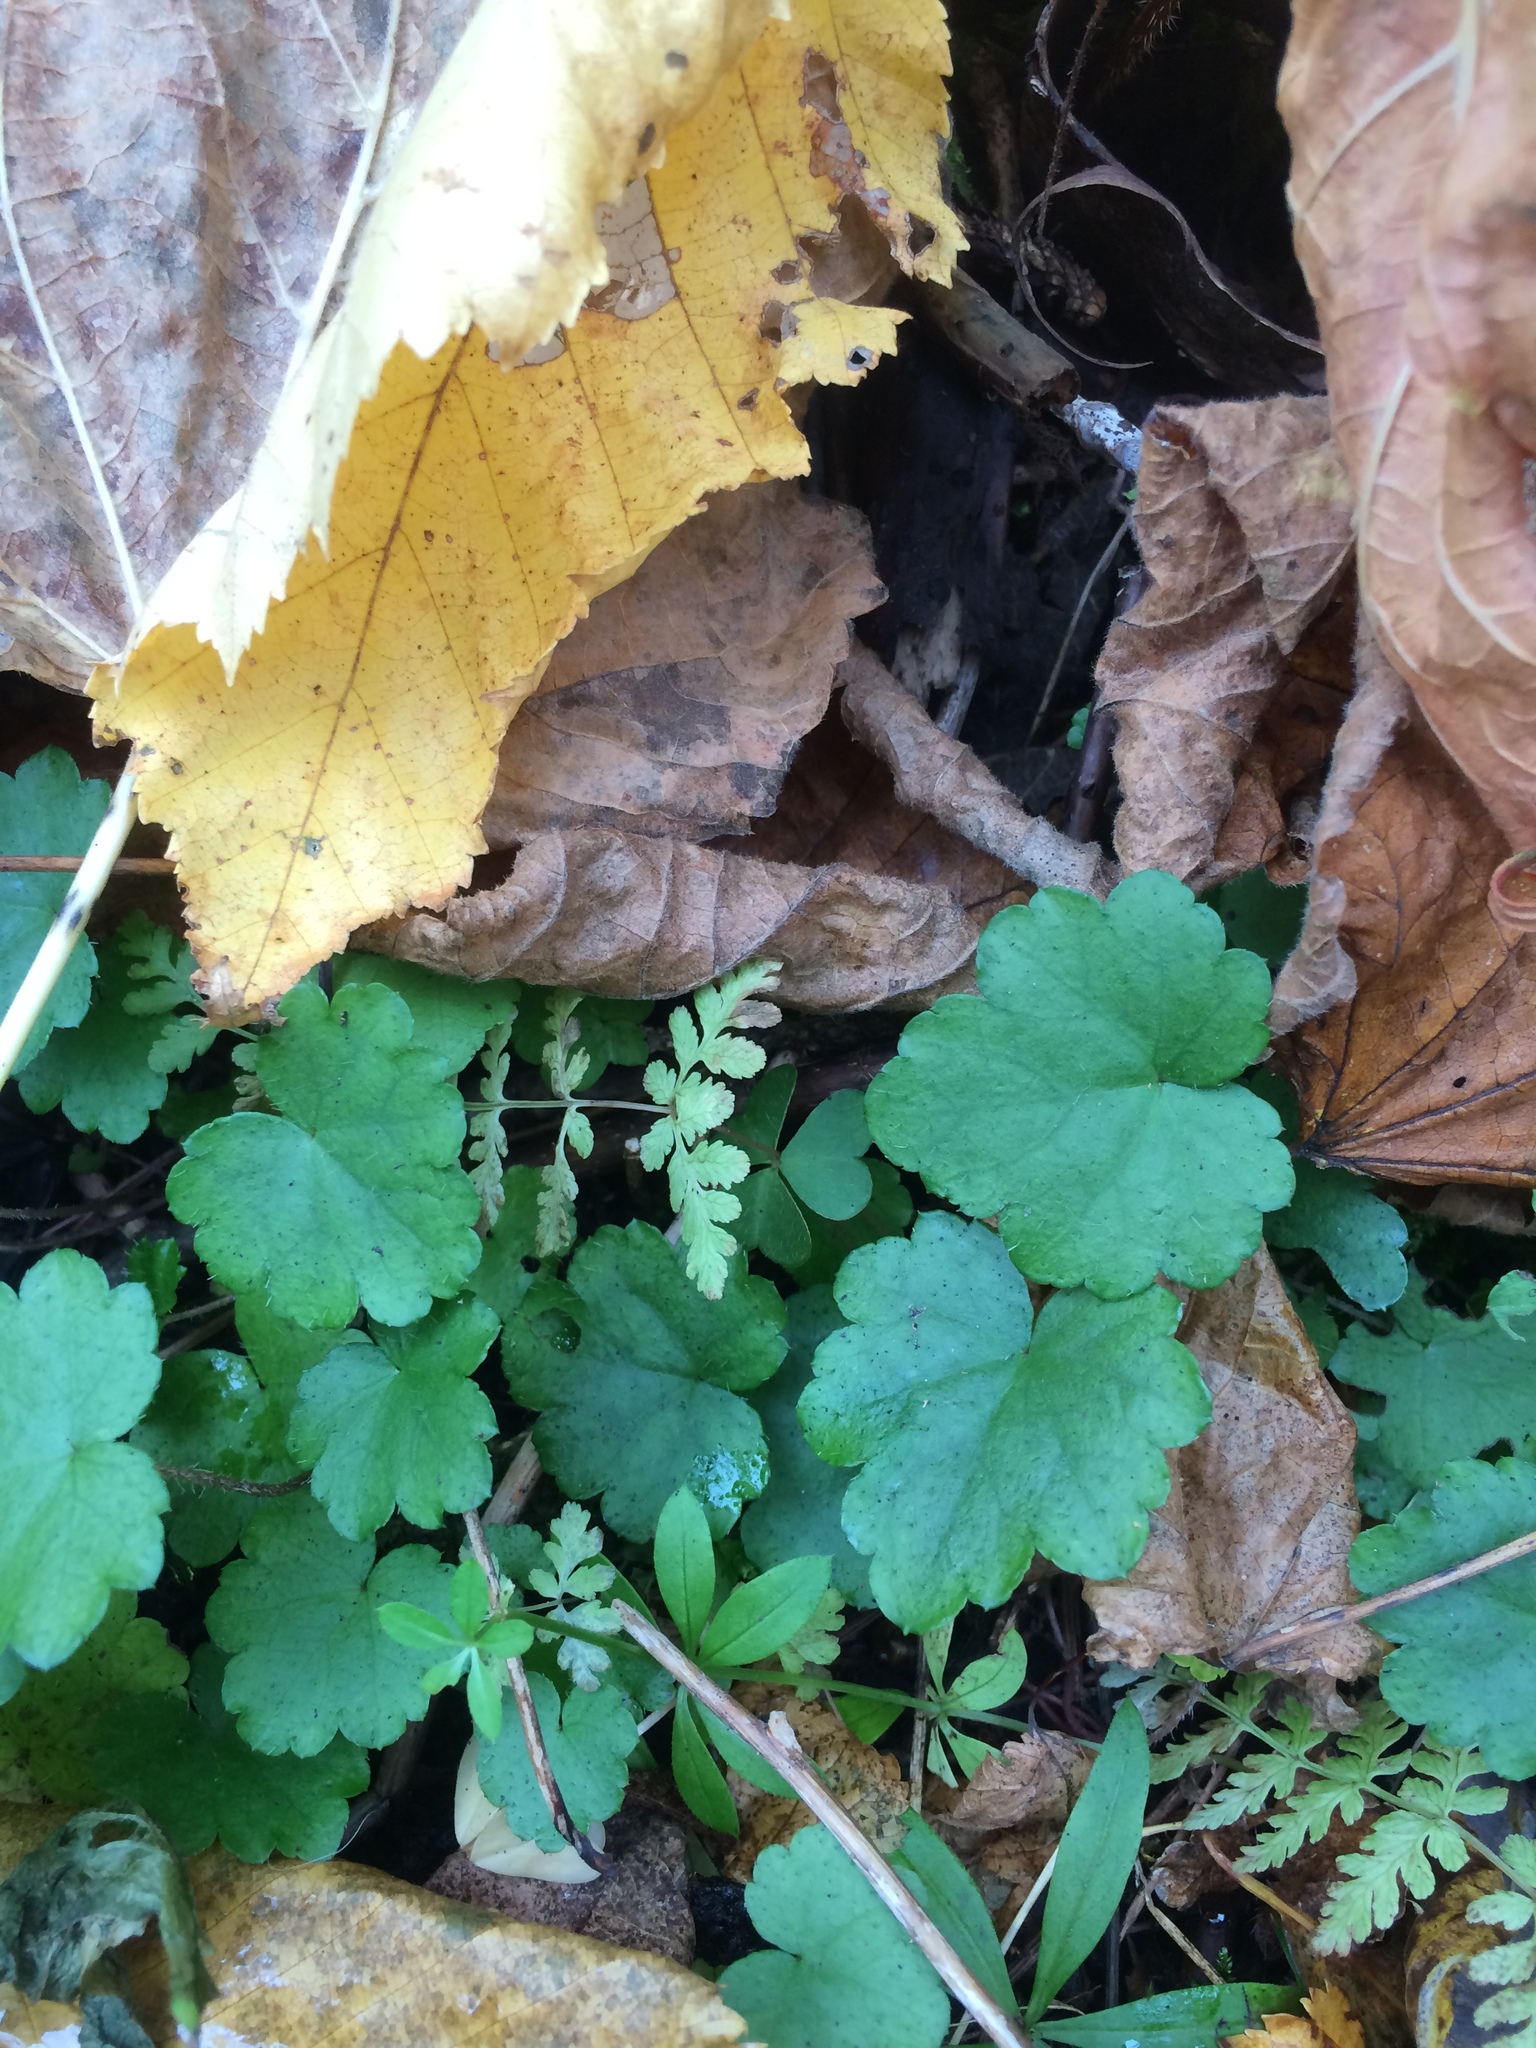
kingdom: Plantae
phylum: Tracheophyta
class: Magnoliopsida
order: Saxifragales
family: Saxifragaceae
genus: Mitella
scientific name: Mitella nuda
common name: Bare-stemmed bishop's-cap
